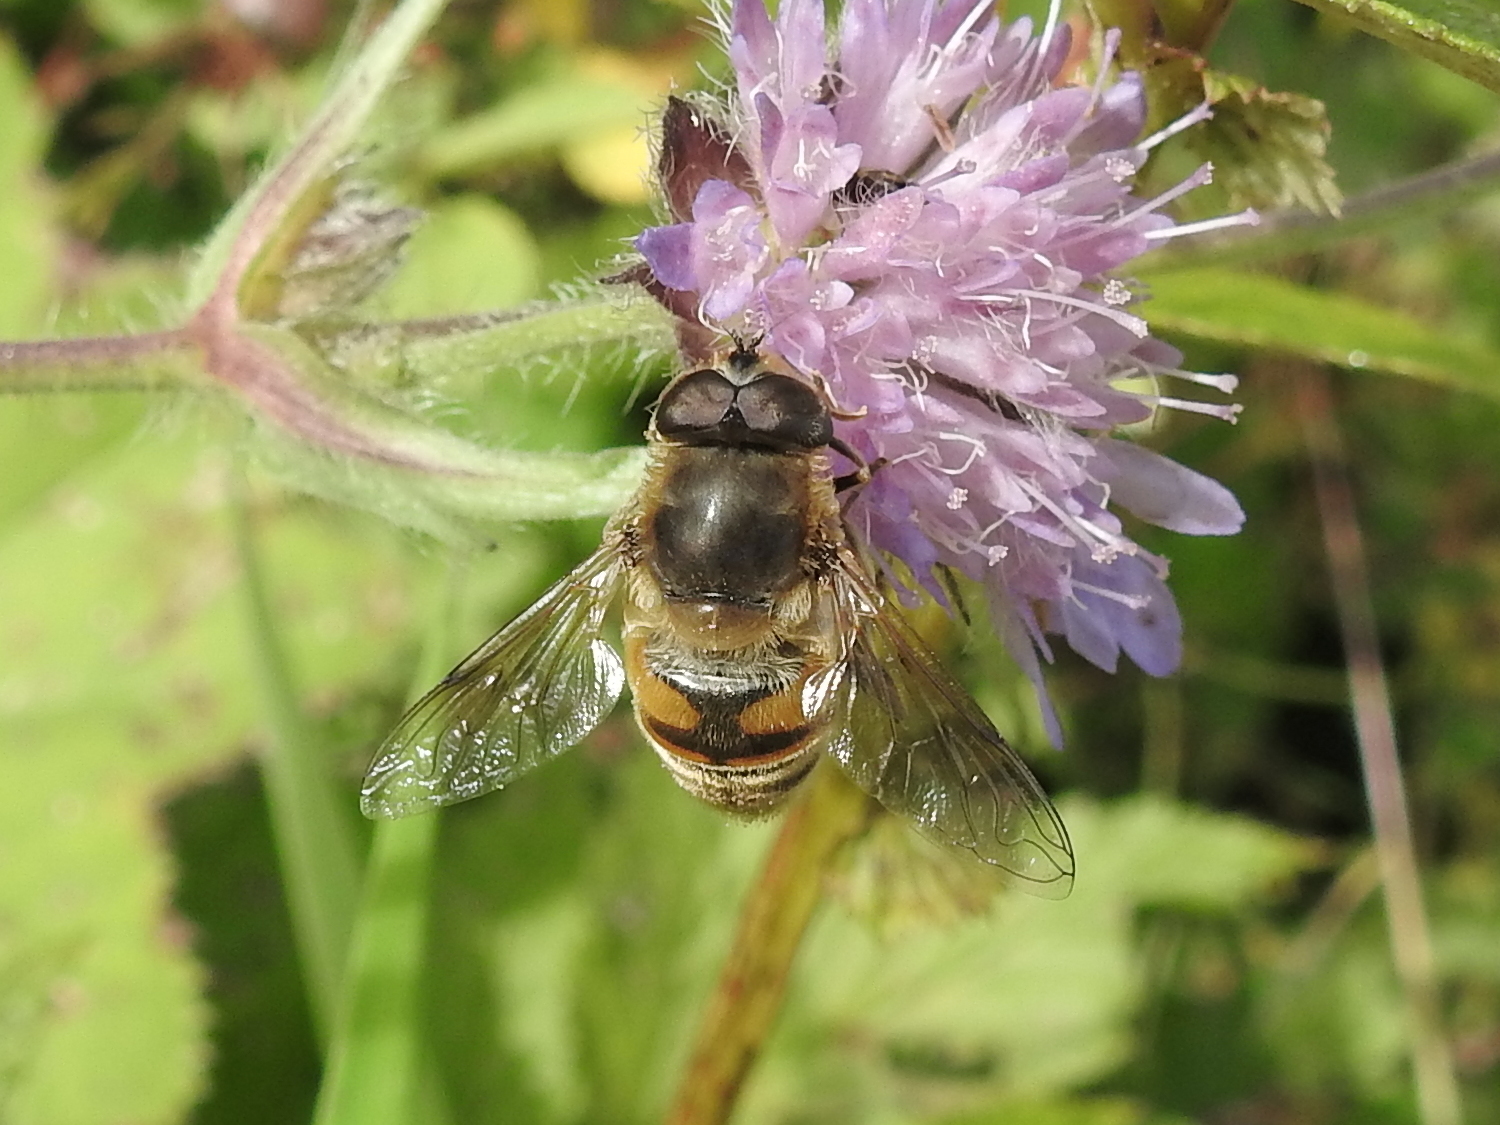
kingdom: Animalia
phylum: Arthropoda
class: Insecta
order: Diptera
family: Syrphidae
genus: Eristalis
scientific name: Eristalis tenax
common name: Drone fly
